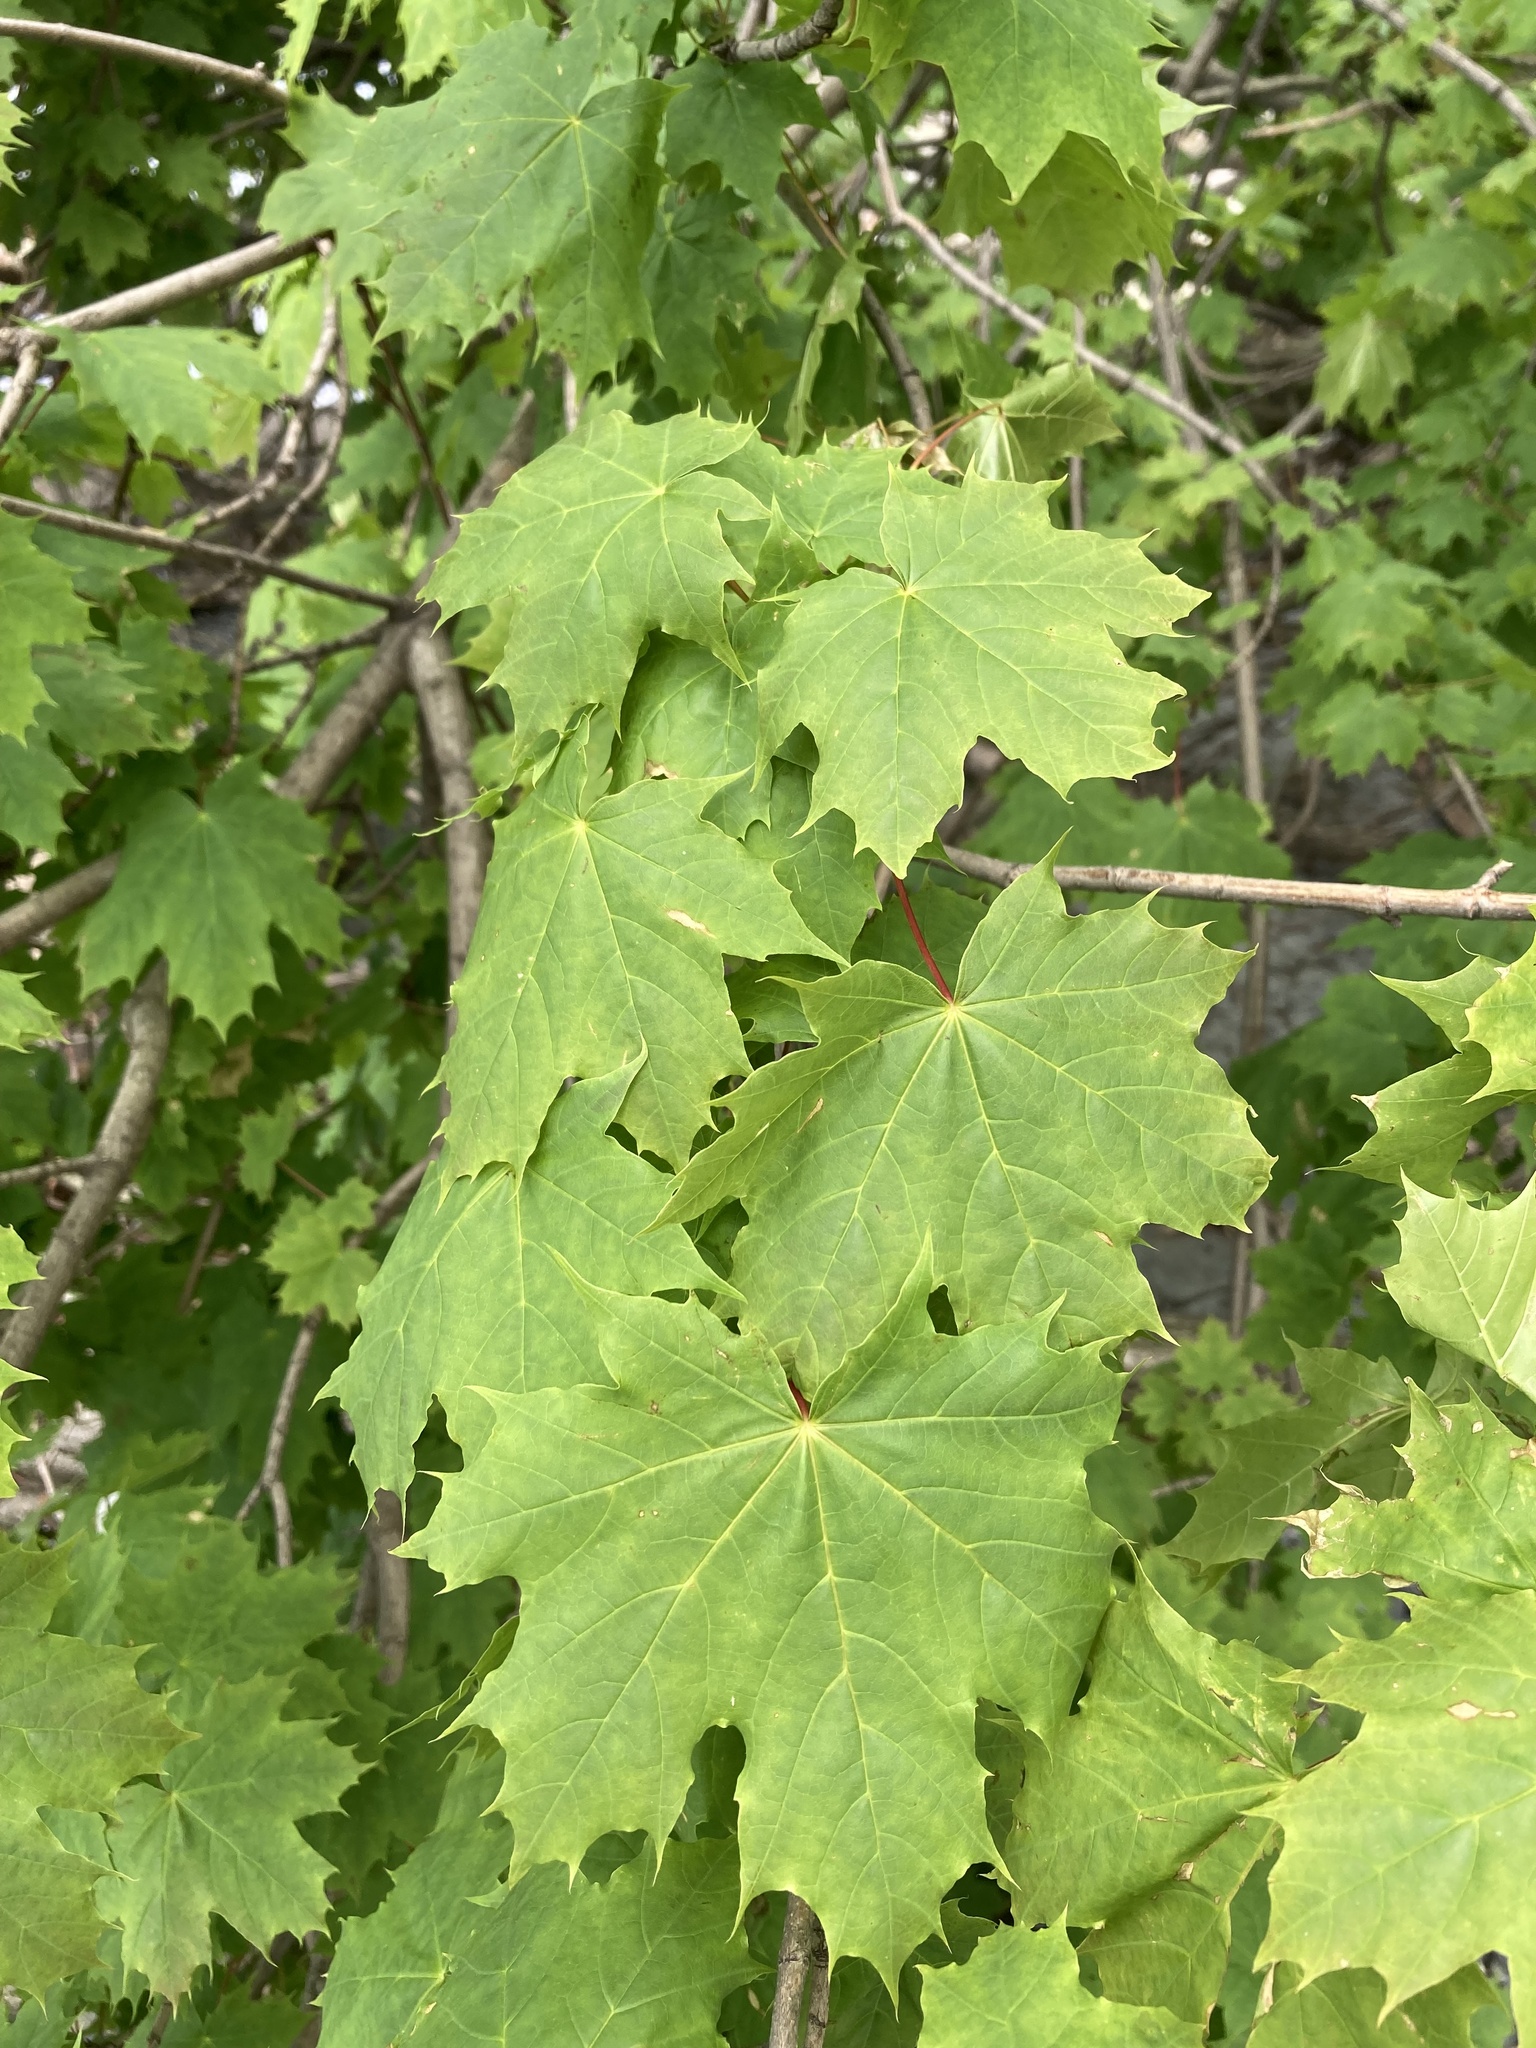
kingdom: Plantae
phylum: Tracheophyta
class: Magnoliopsida
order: Sapindales
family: Sapindaceae
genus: Acer
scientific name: Acer platanoides
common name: Norway maple
